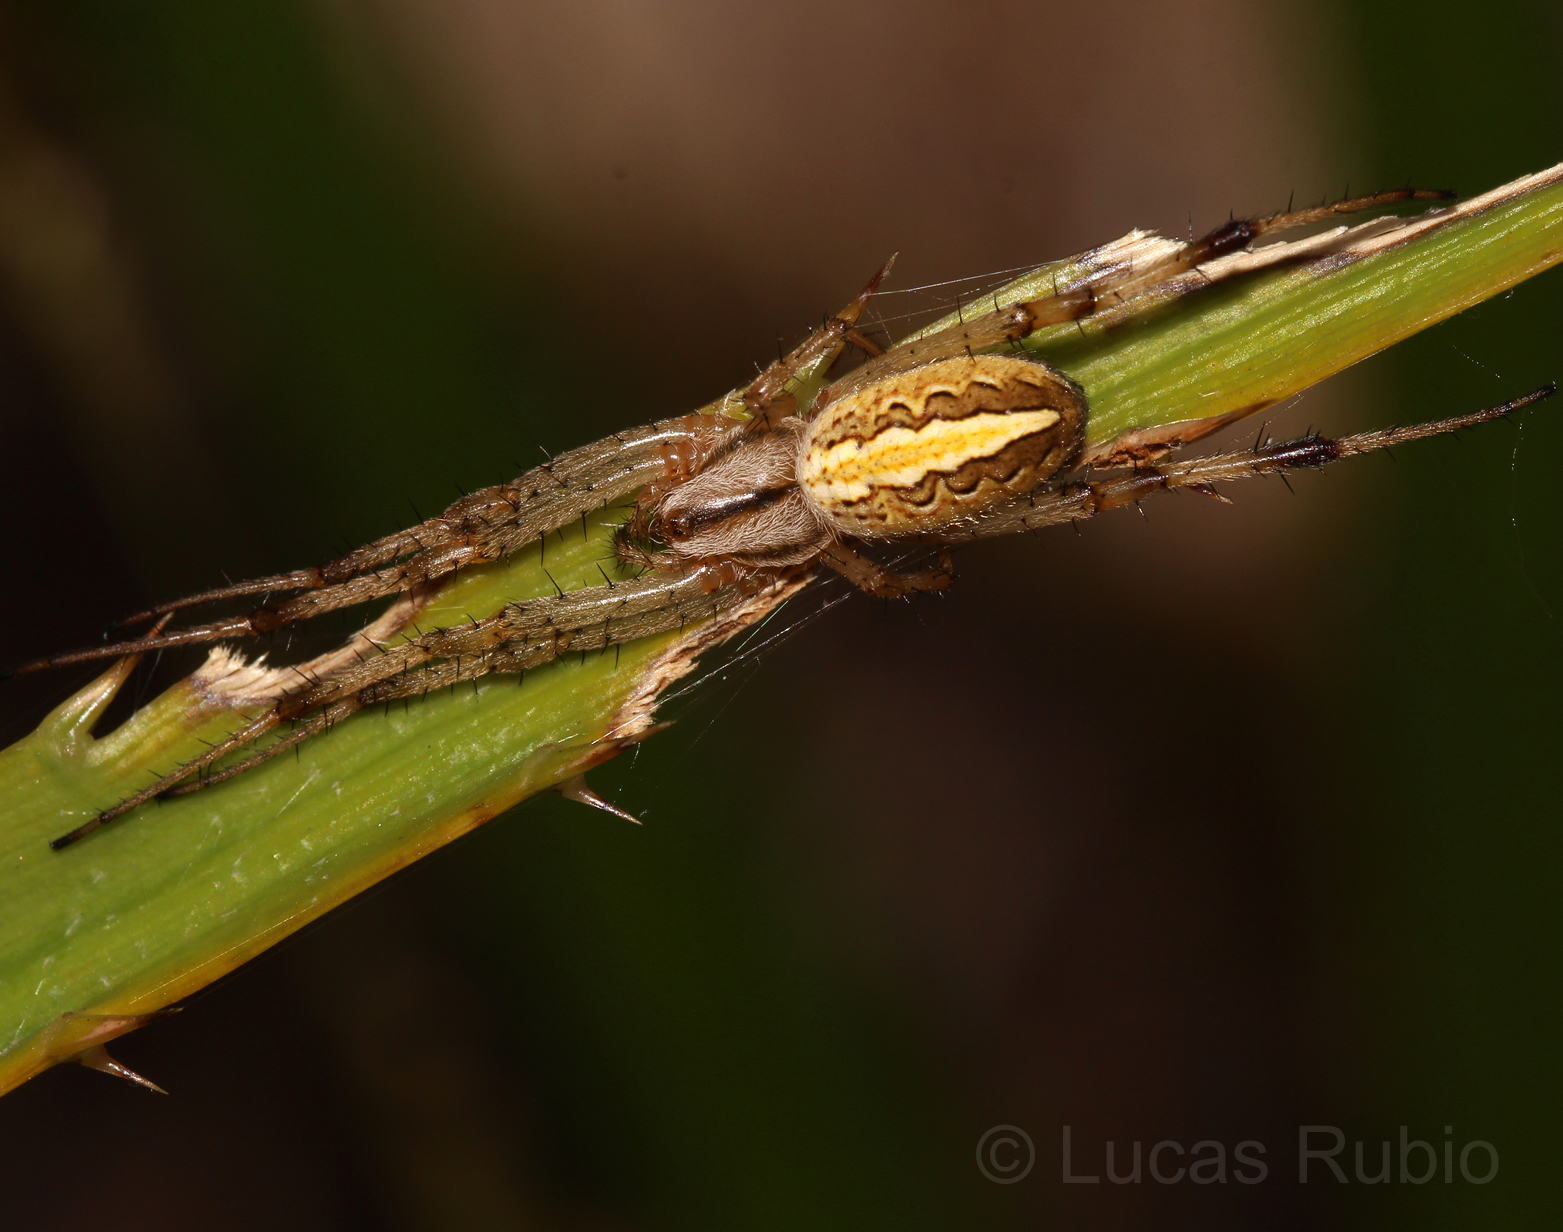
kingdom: Animalia
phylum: Arthropoda
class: Arachnida
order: Araneae
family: Araneidae
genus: Neoscona
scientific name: Neoscona moreli
